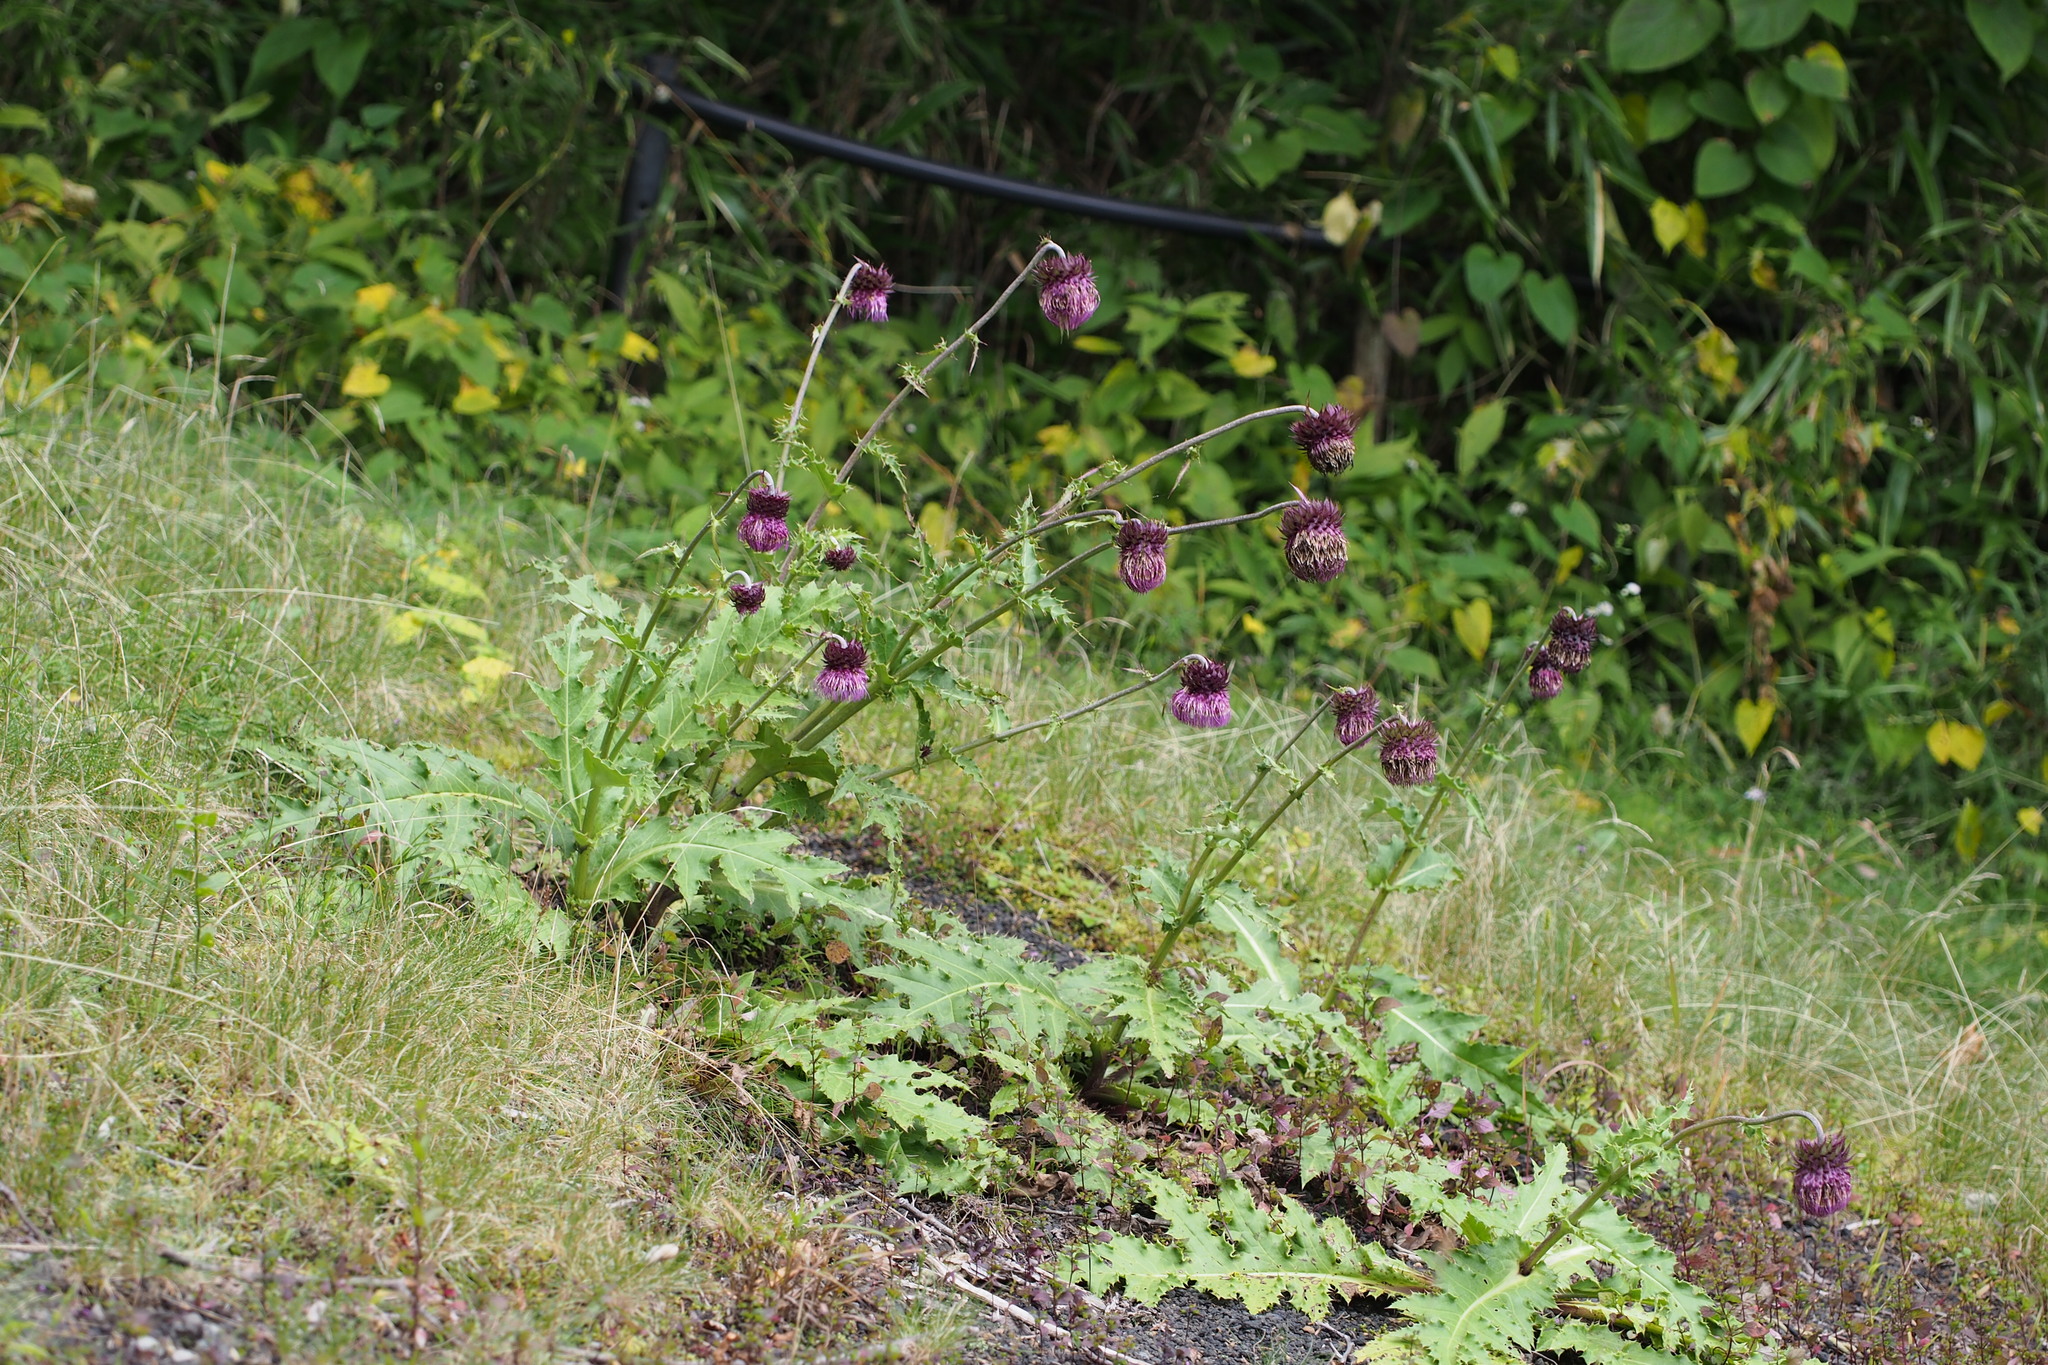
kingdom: Plantae
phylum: Tracheophyta
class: Magnoliopsida
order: Asterales
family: Asteraceae
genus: Cirsium
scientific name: Cirsium purpuratum
